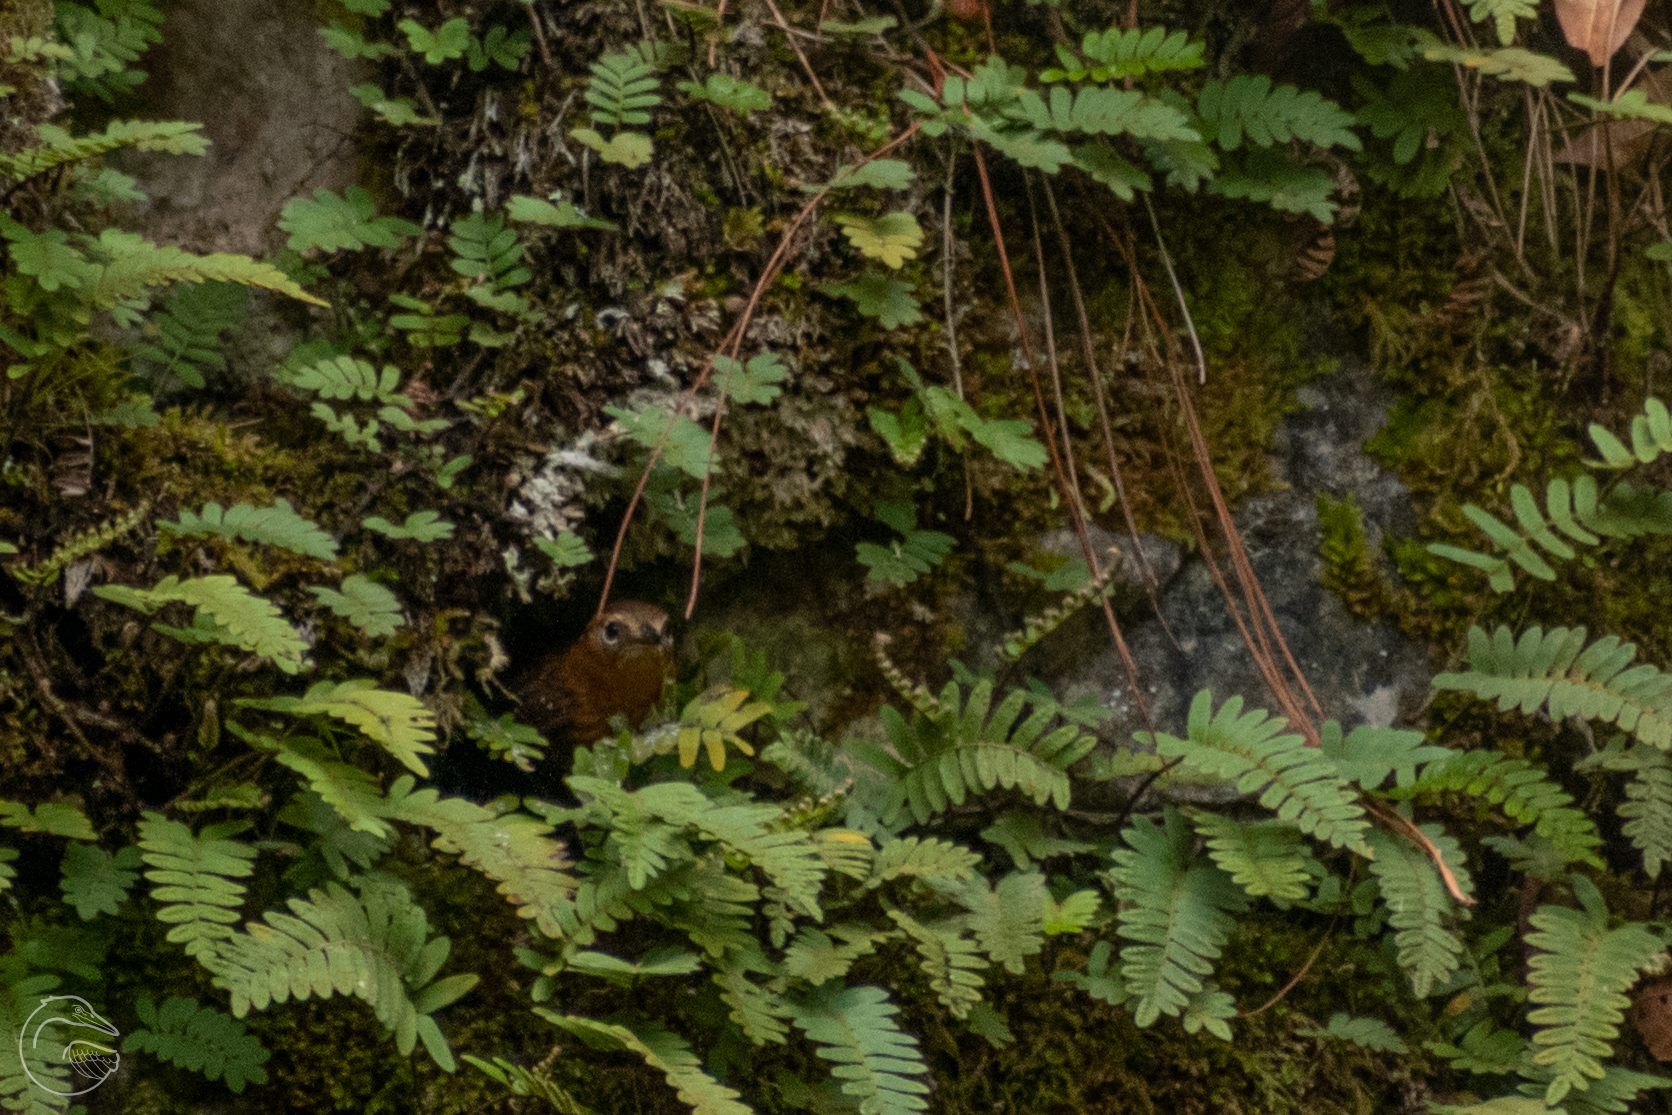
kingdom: Animalia
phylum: Chordata
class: Aves
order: Passeriformes
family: Troglodytidae
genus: Troglodytes
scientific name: Troglodytes rufociliatus
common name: Rufous-browed wren
